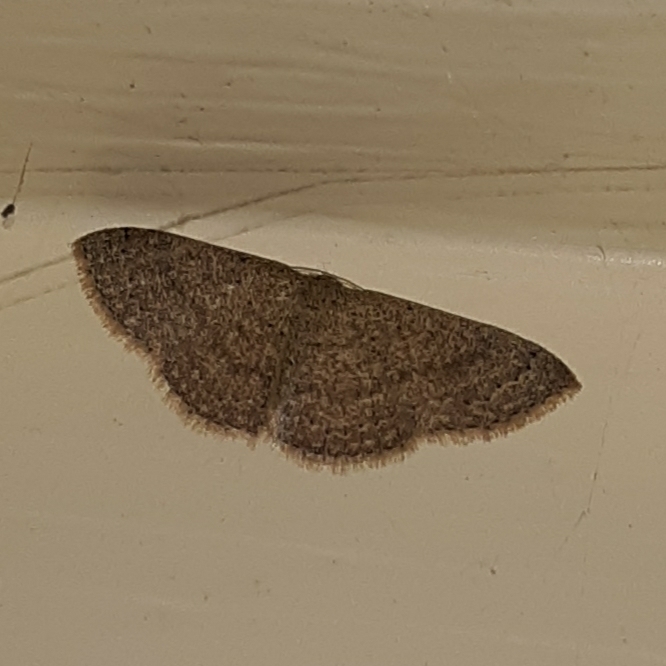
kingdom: Animalia
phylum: Arthropoda
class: Insecta
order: Lepidoptera
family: Geometridae
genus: Pleuroprucha
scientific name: Pleuroprucha insulsaria
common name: Common tan wave
